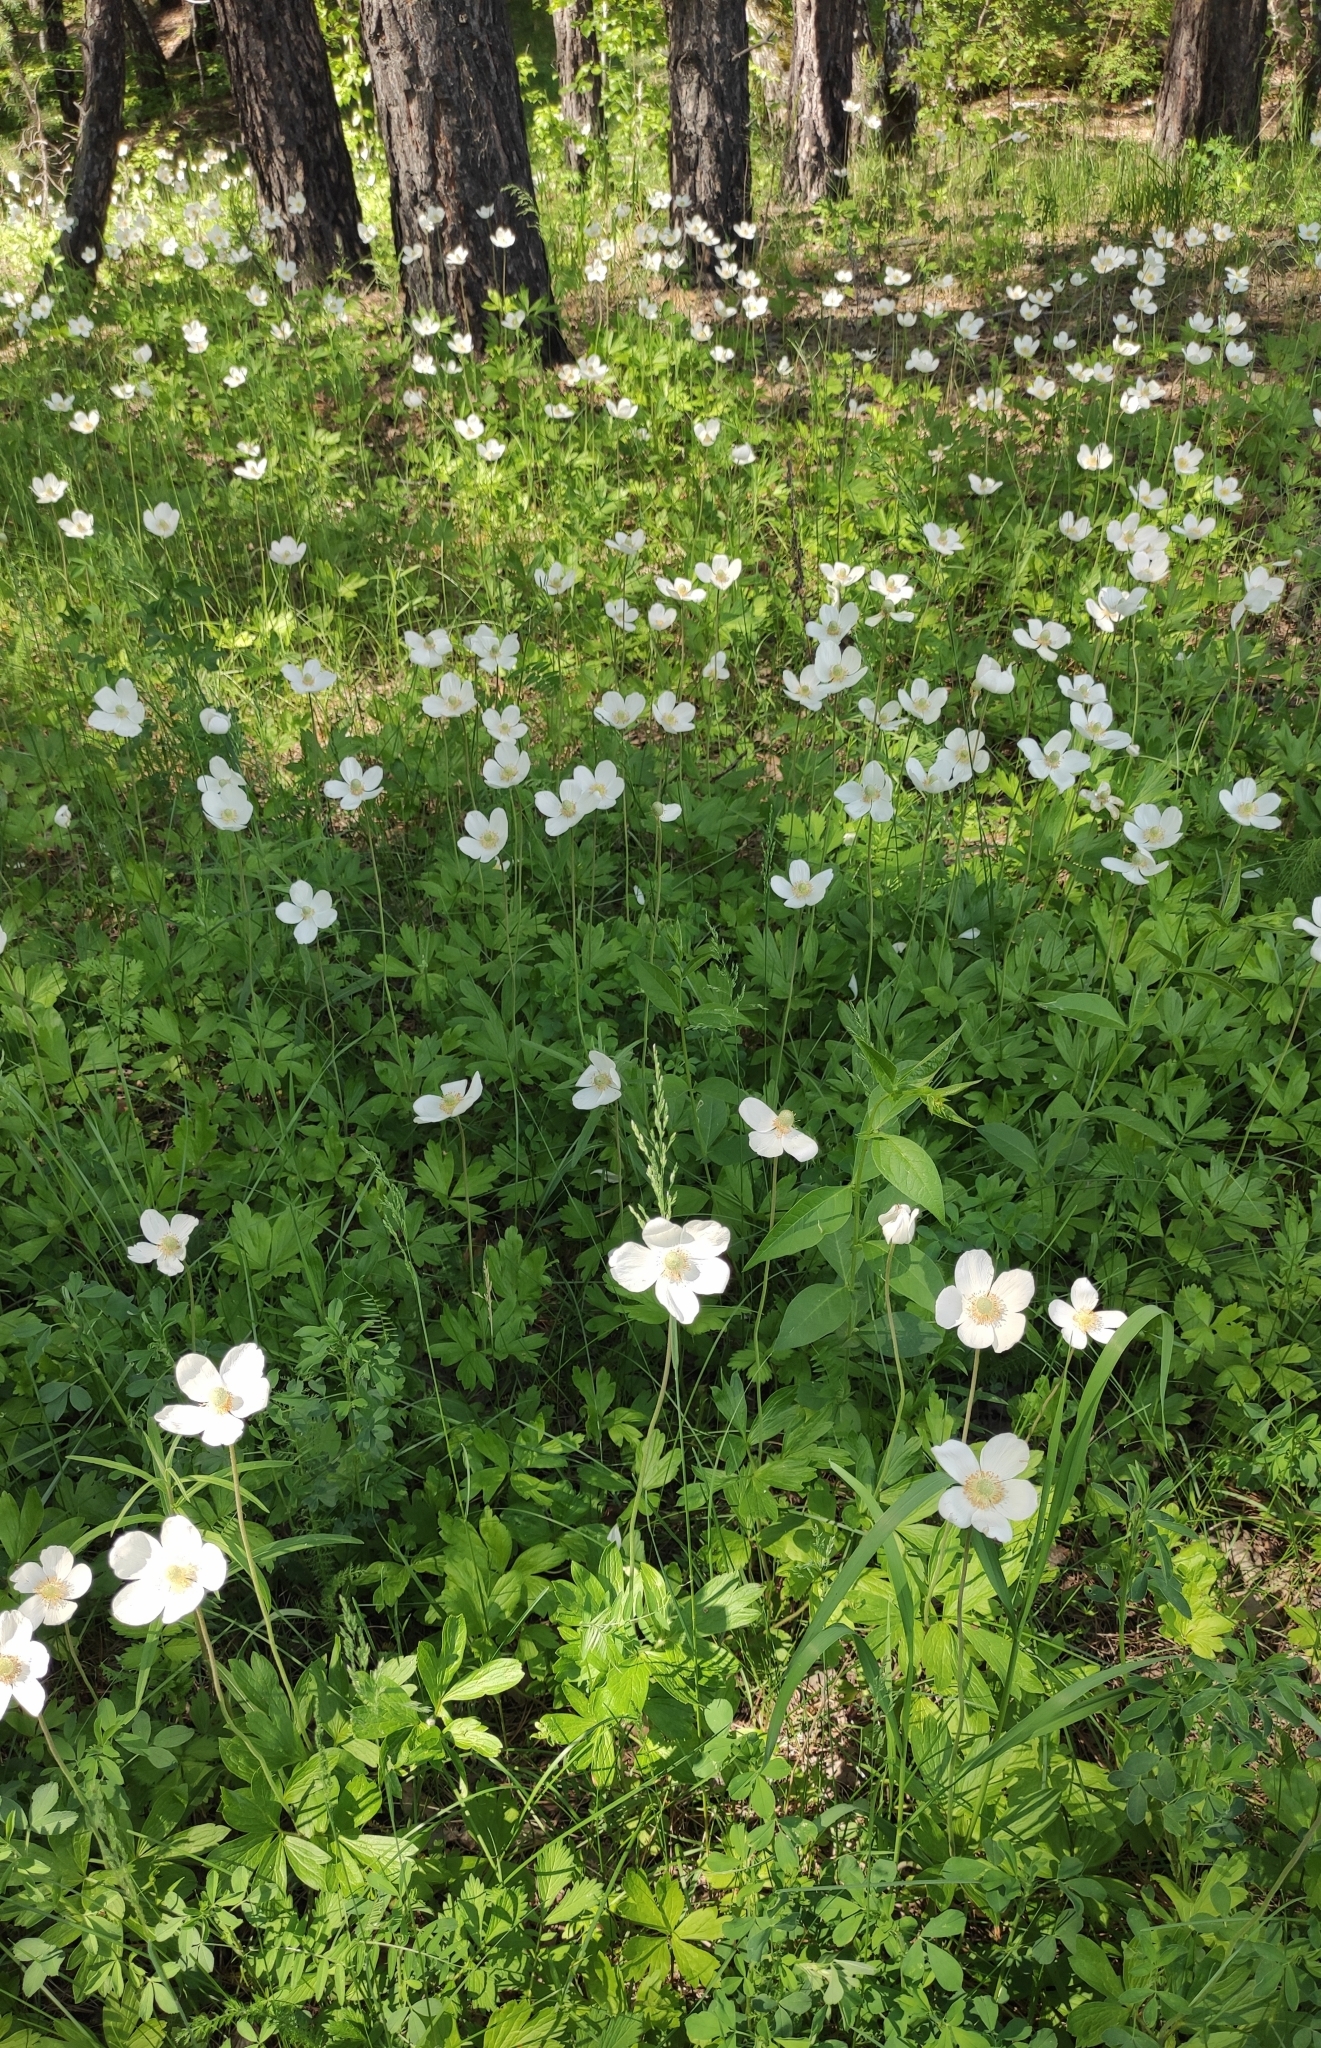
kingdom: Plantae
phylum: Tracheophyta
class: Magnoliopsida
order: Ranunculales
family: Ranunculaceae
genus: Anemone
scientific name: Anemone sylvestris
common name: Snowdrop anemone
